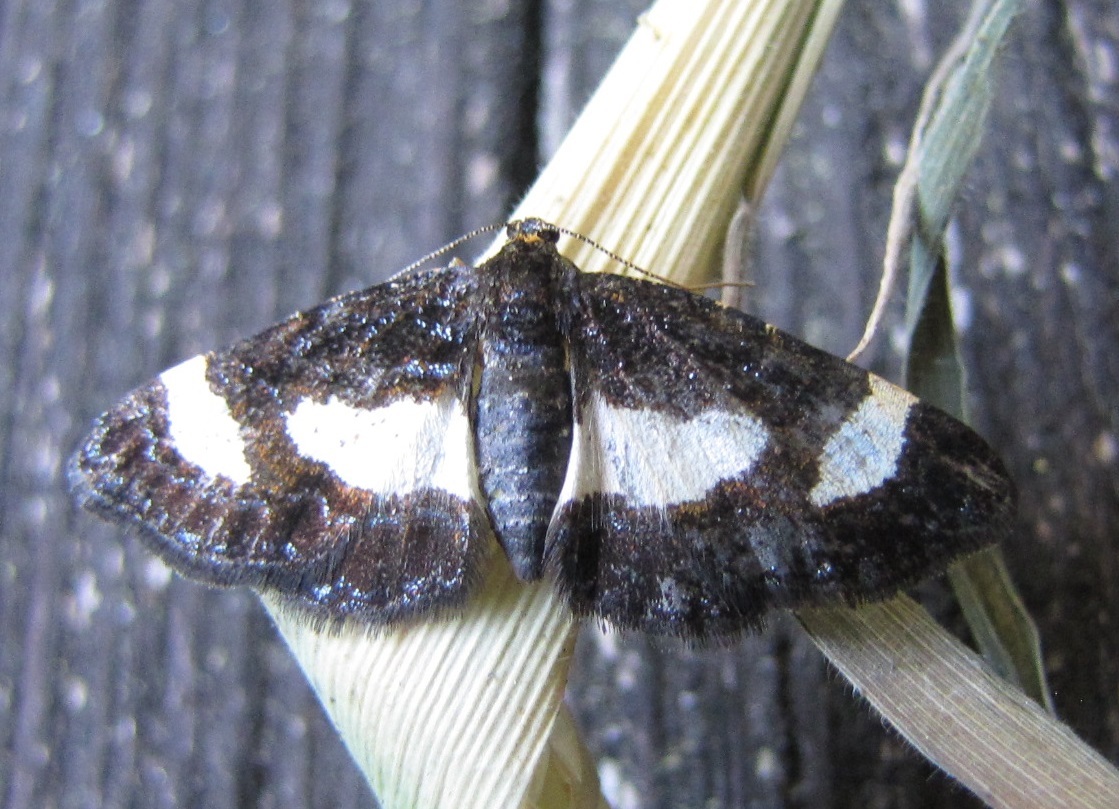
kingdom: Animalia
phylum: Arthropoda
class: Insecta
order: Lepidoptera
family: Geometridae
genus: Heliomata
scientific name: Heliomata cycladata
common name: Common spring moth
